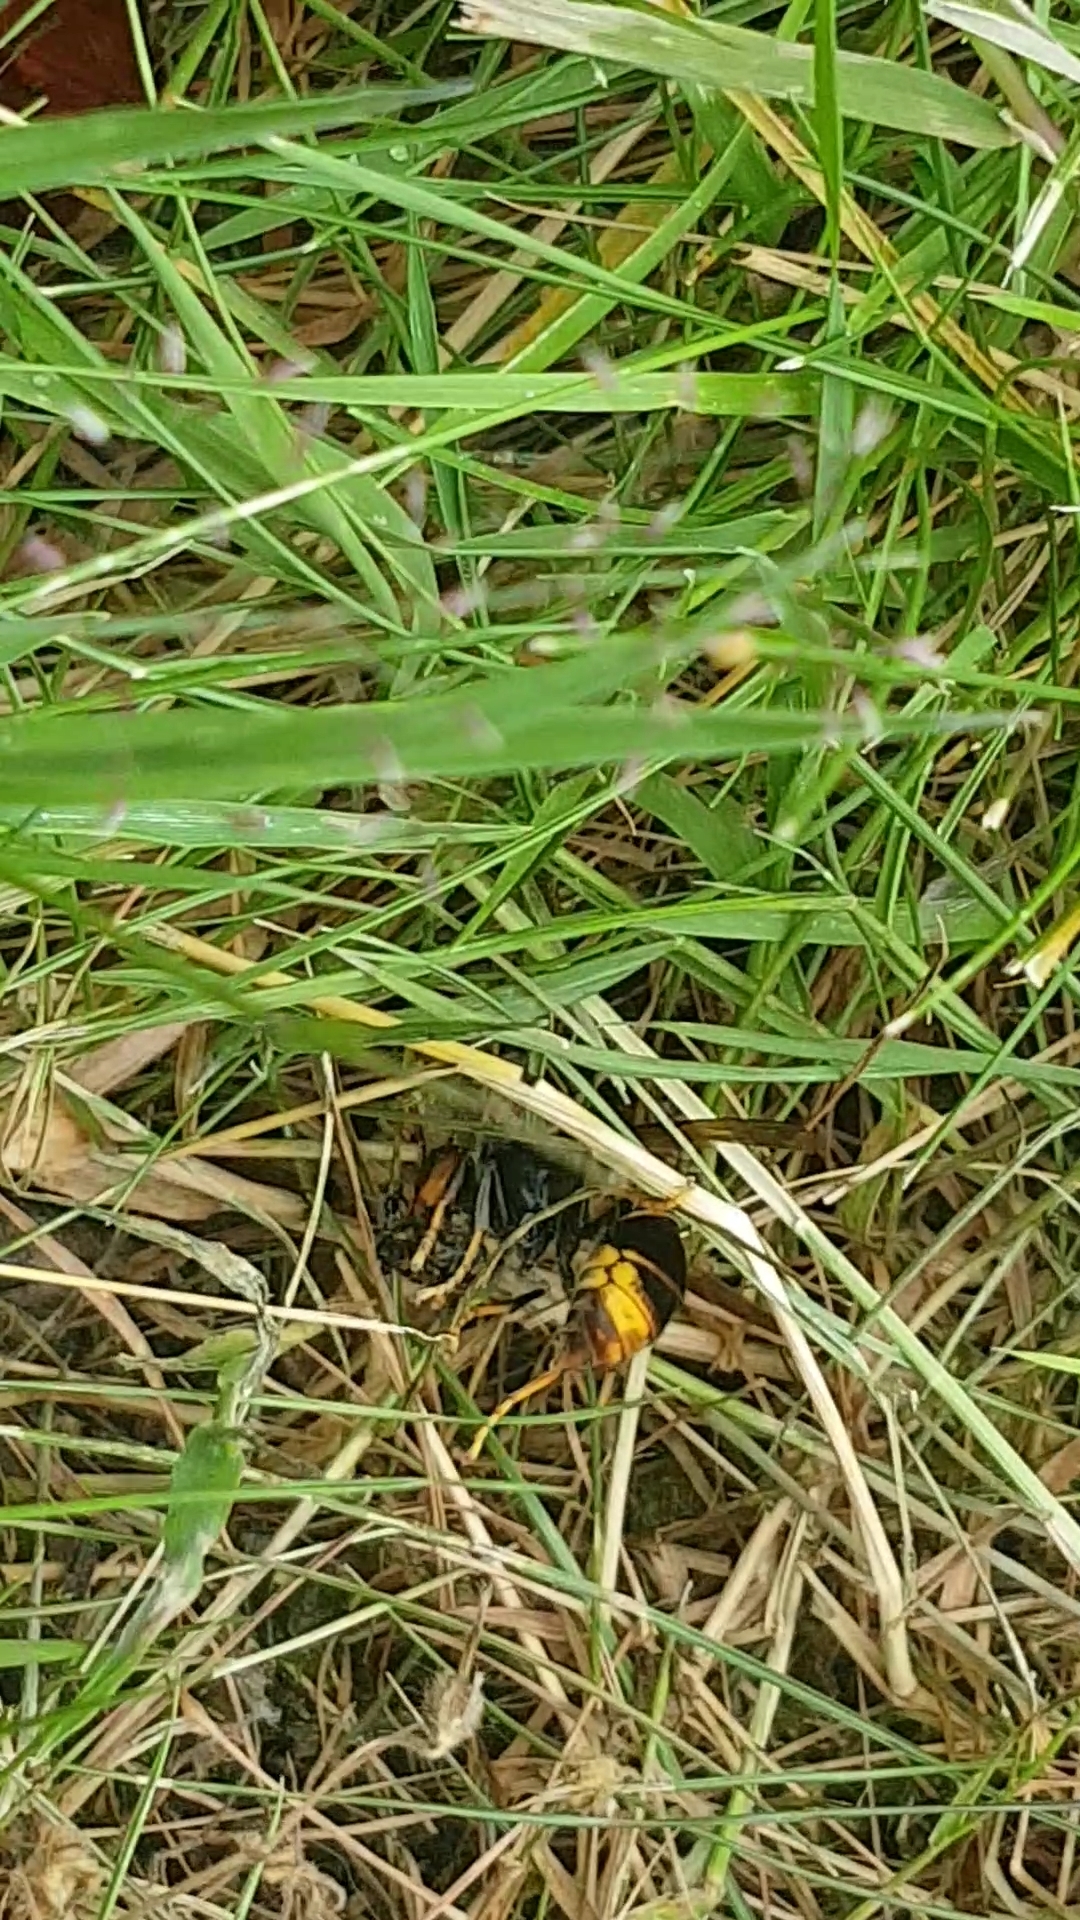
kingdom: Animalia
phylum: Arthropoda
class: Insecta
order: Hymenoptera
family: Vespidae
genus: Vespa
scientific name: Vespa velutina
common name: Asian hornet
